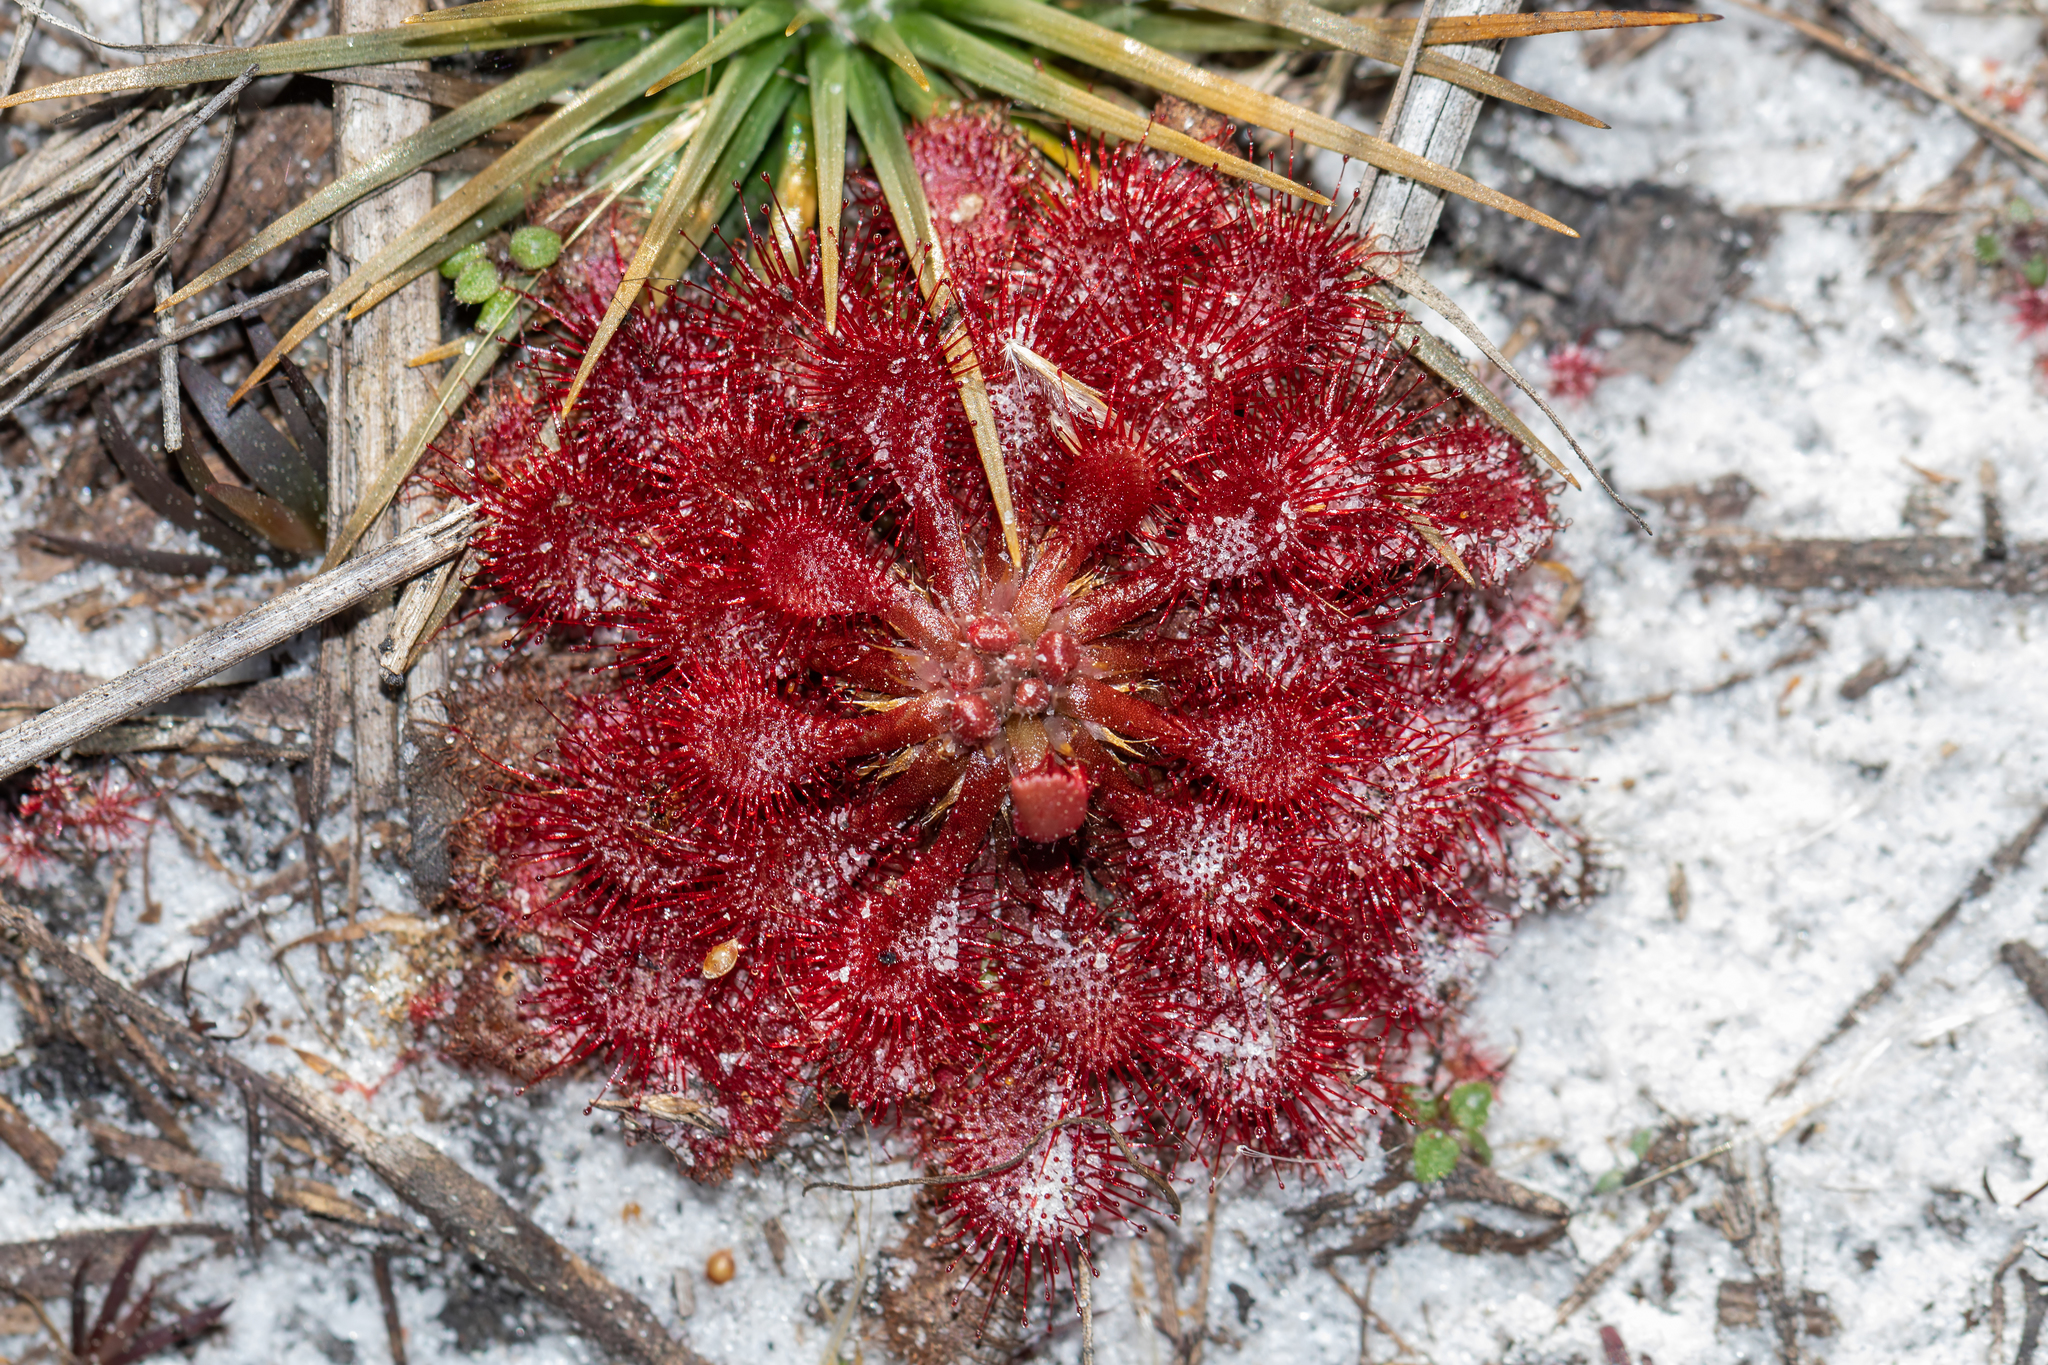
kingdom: Plantae
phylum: Tracheophyta
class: Magnoliopsida
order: Caryophyllales
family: Droseraceae
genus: Drosera
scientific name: Drosera capillaris
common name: Pink sundew
